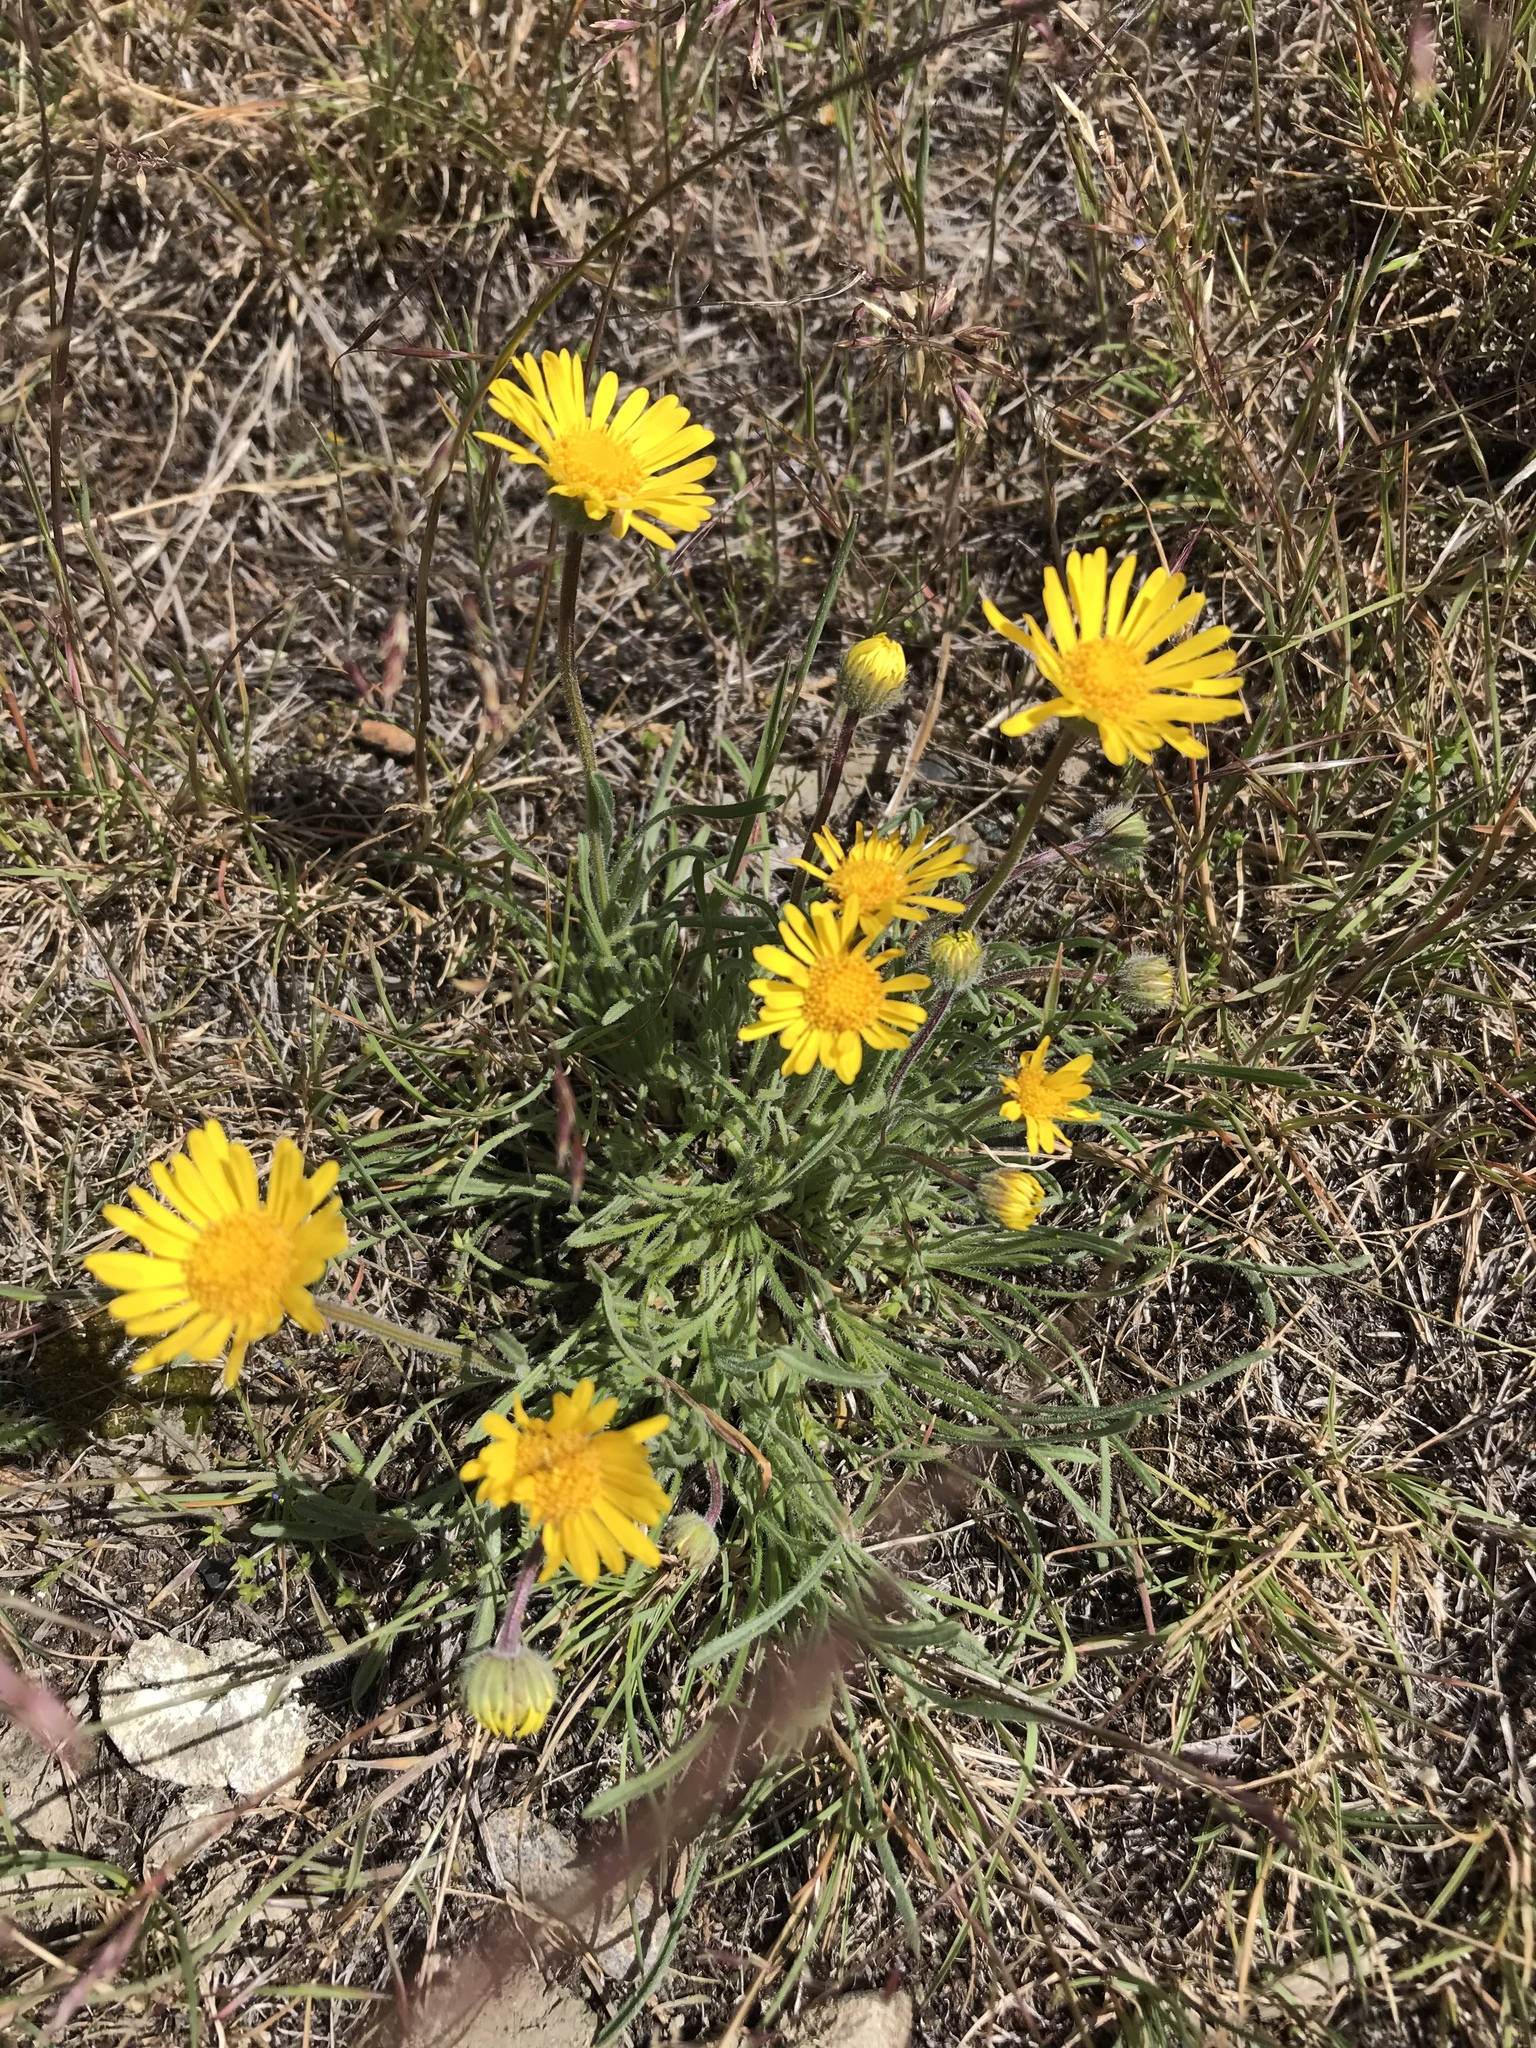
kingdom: Plantae
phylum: Tracheophyta
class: Magnoliopsida
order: Asterales
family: Asteraceae
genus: Eriophyllum
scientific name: Eriophyllum lanatum
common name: Common woolly-sunflower
